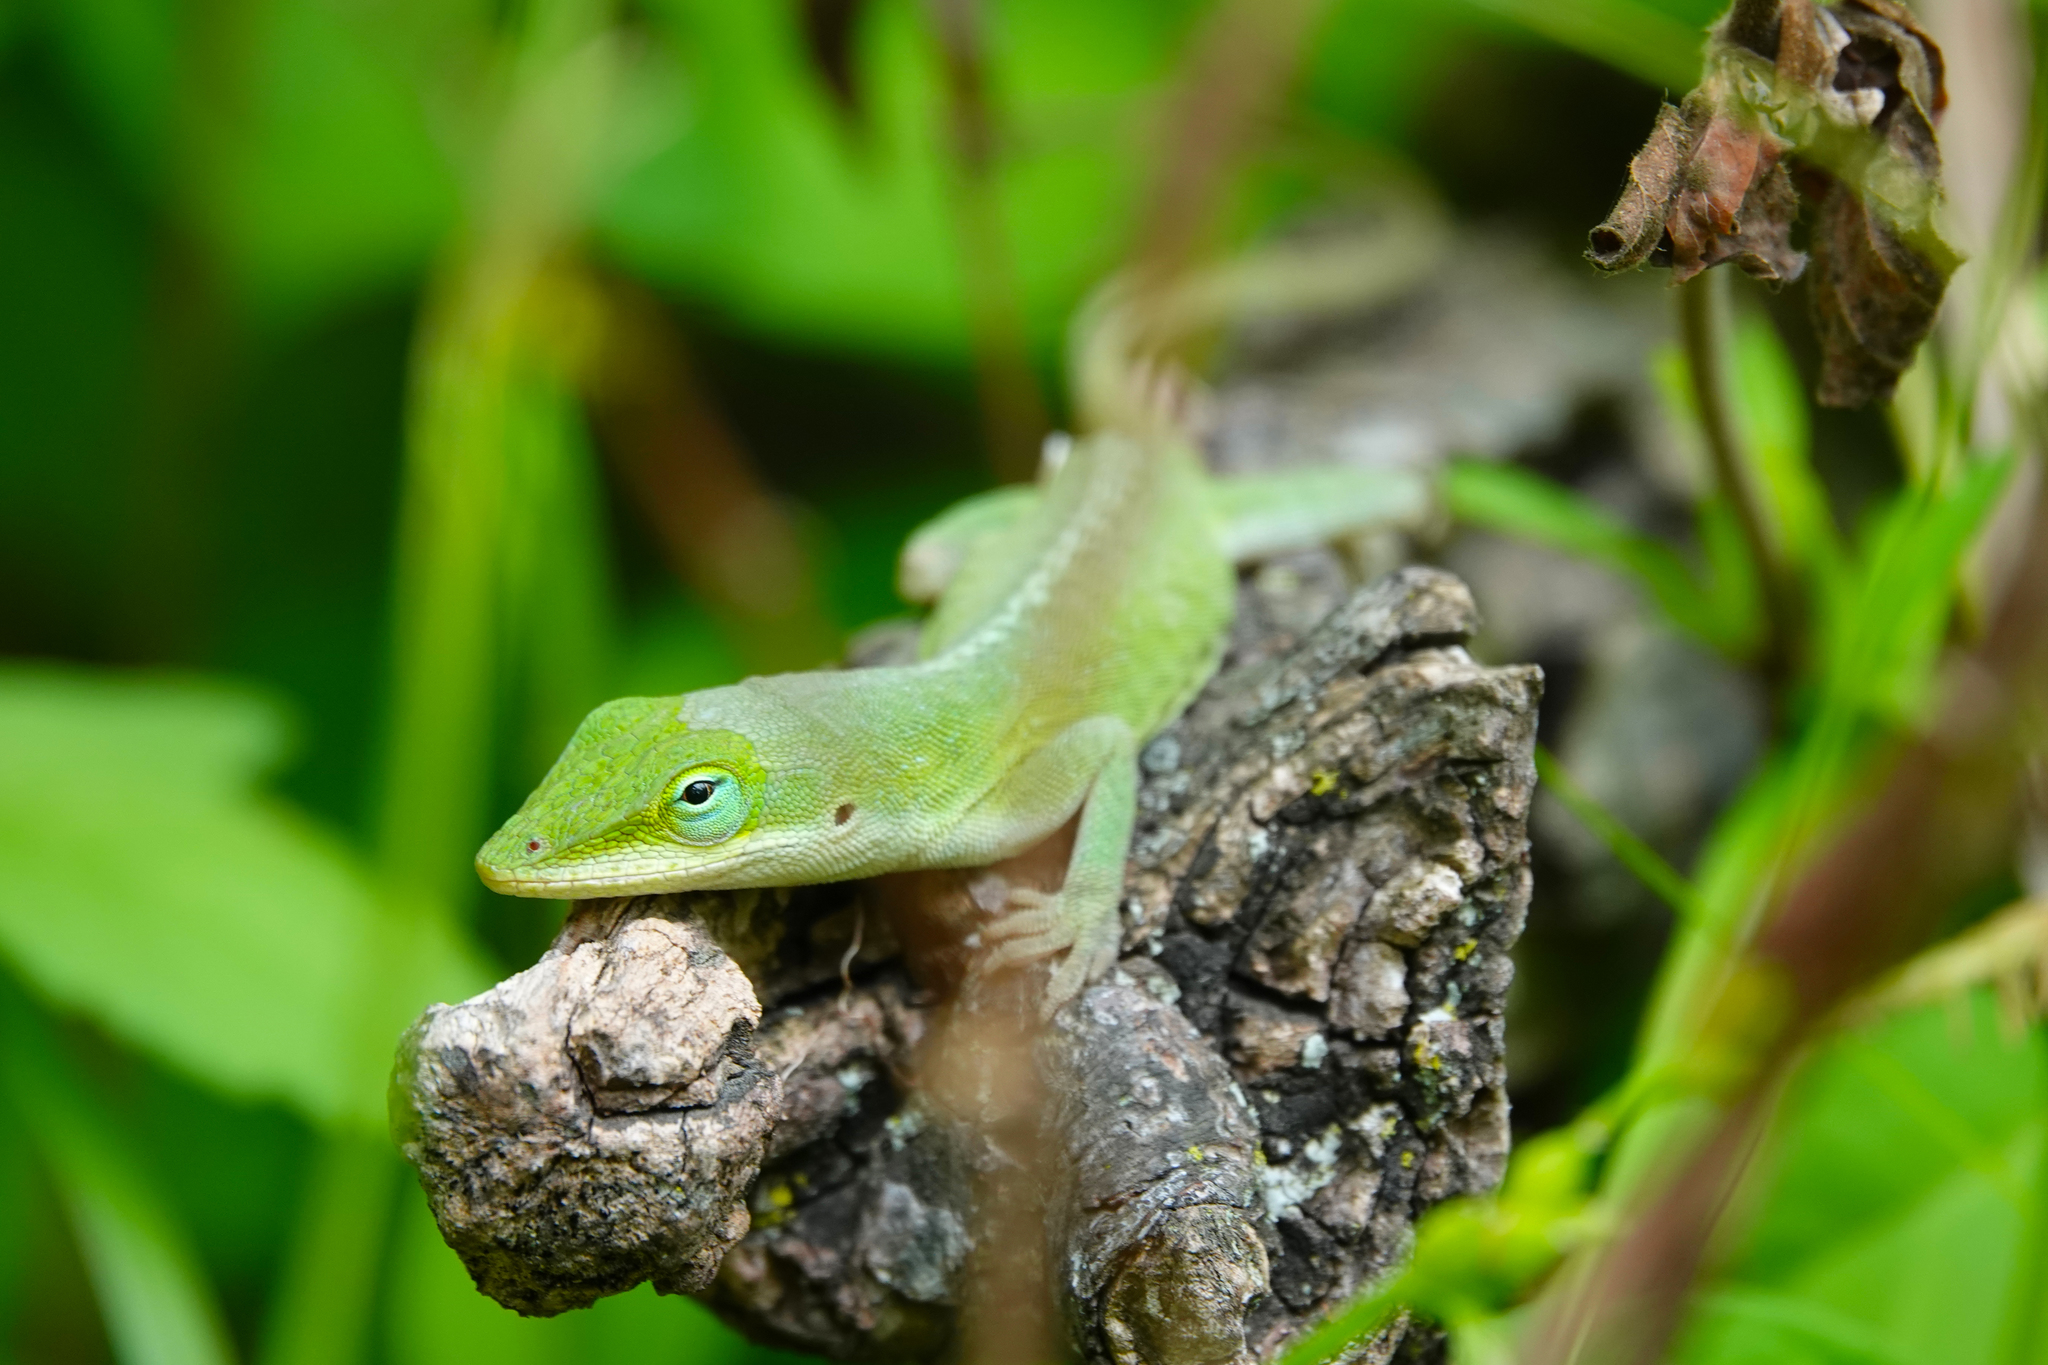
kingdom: Animalia
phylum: Chordata
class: Squamata
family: Dactyloidae
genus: Anolis
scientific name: Anolis carolinensis
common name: Green anole
